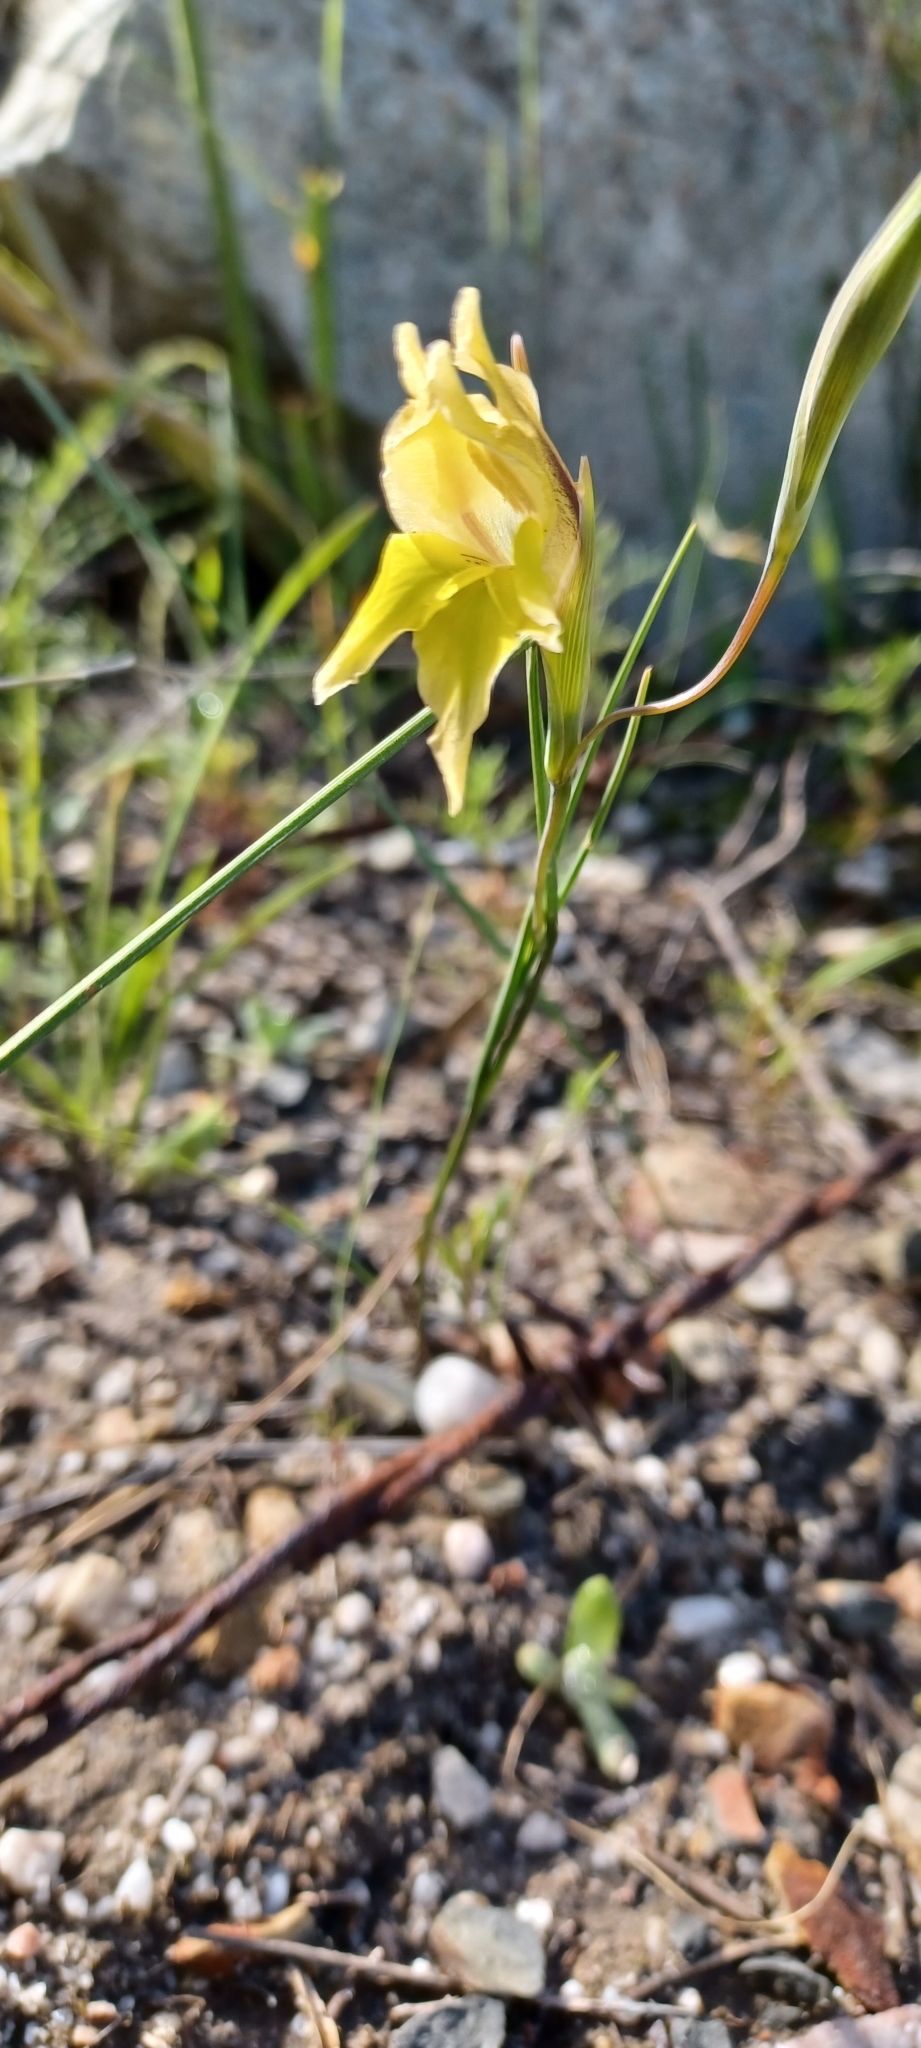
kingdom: Plantae
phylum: Tracheophyta
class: Liliopsida
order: Asparagales
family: Iridaceae
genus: Gladiolus
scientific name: Gladiolus carinatus
